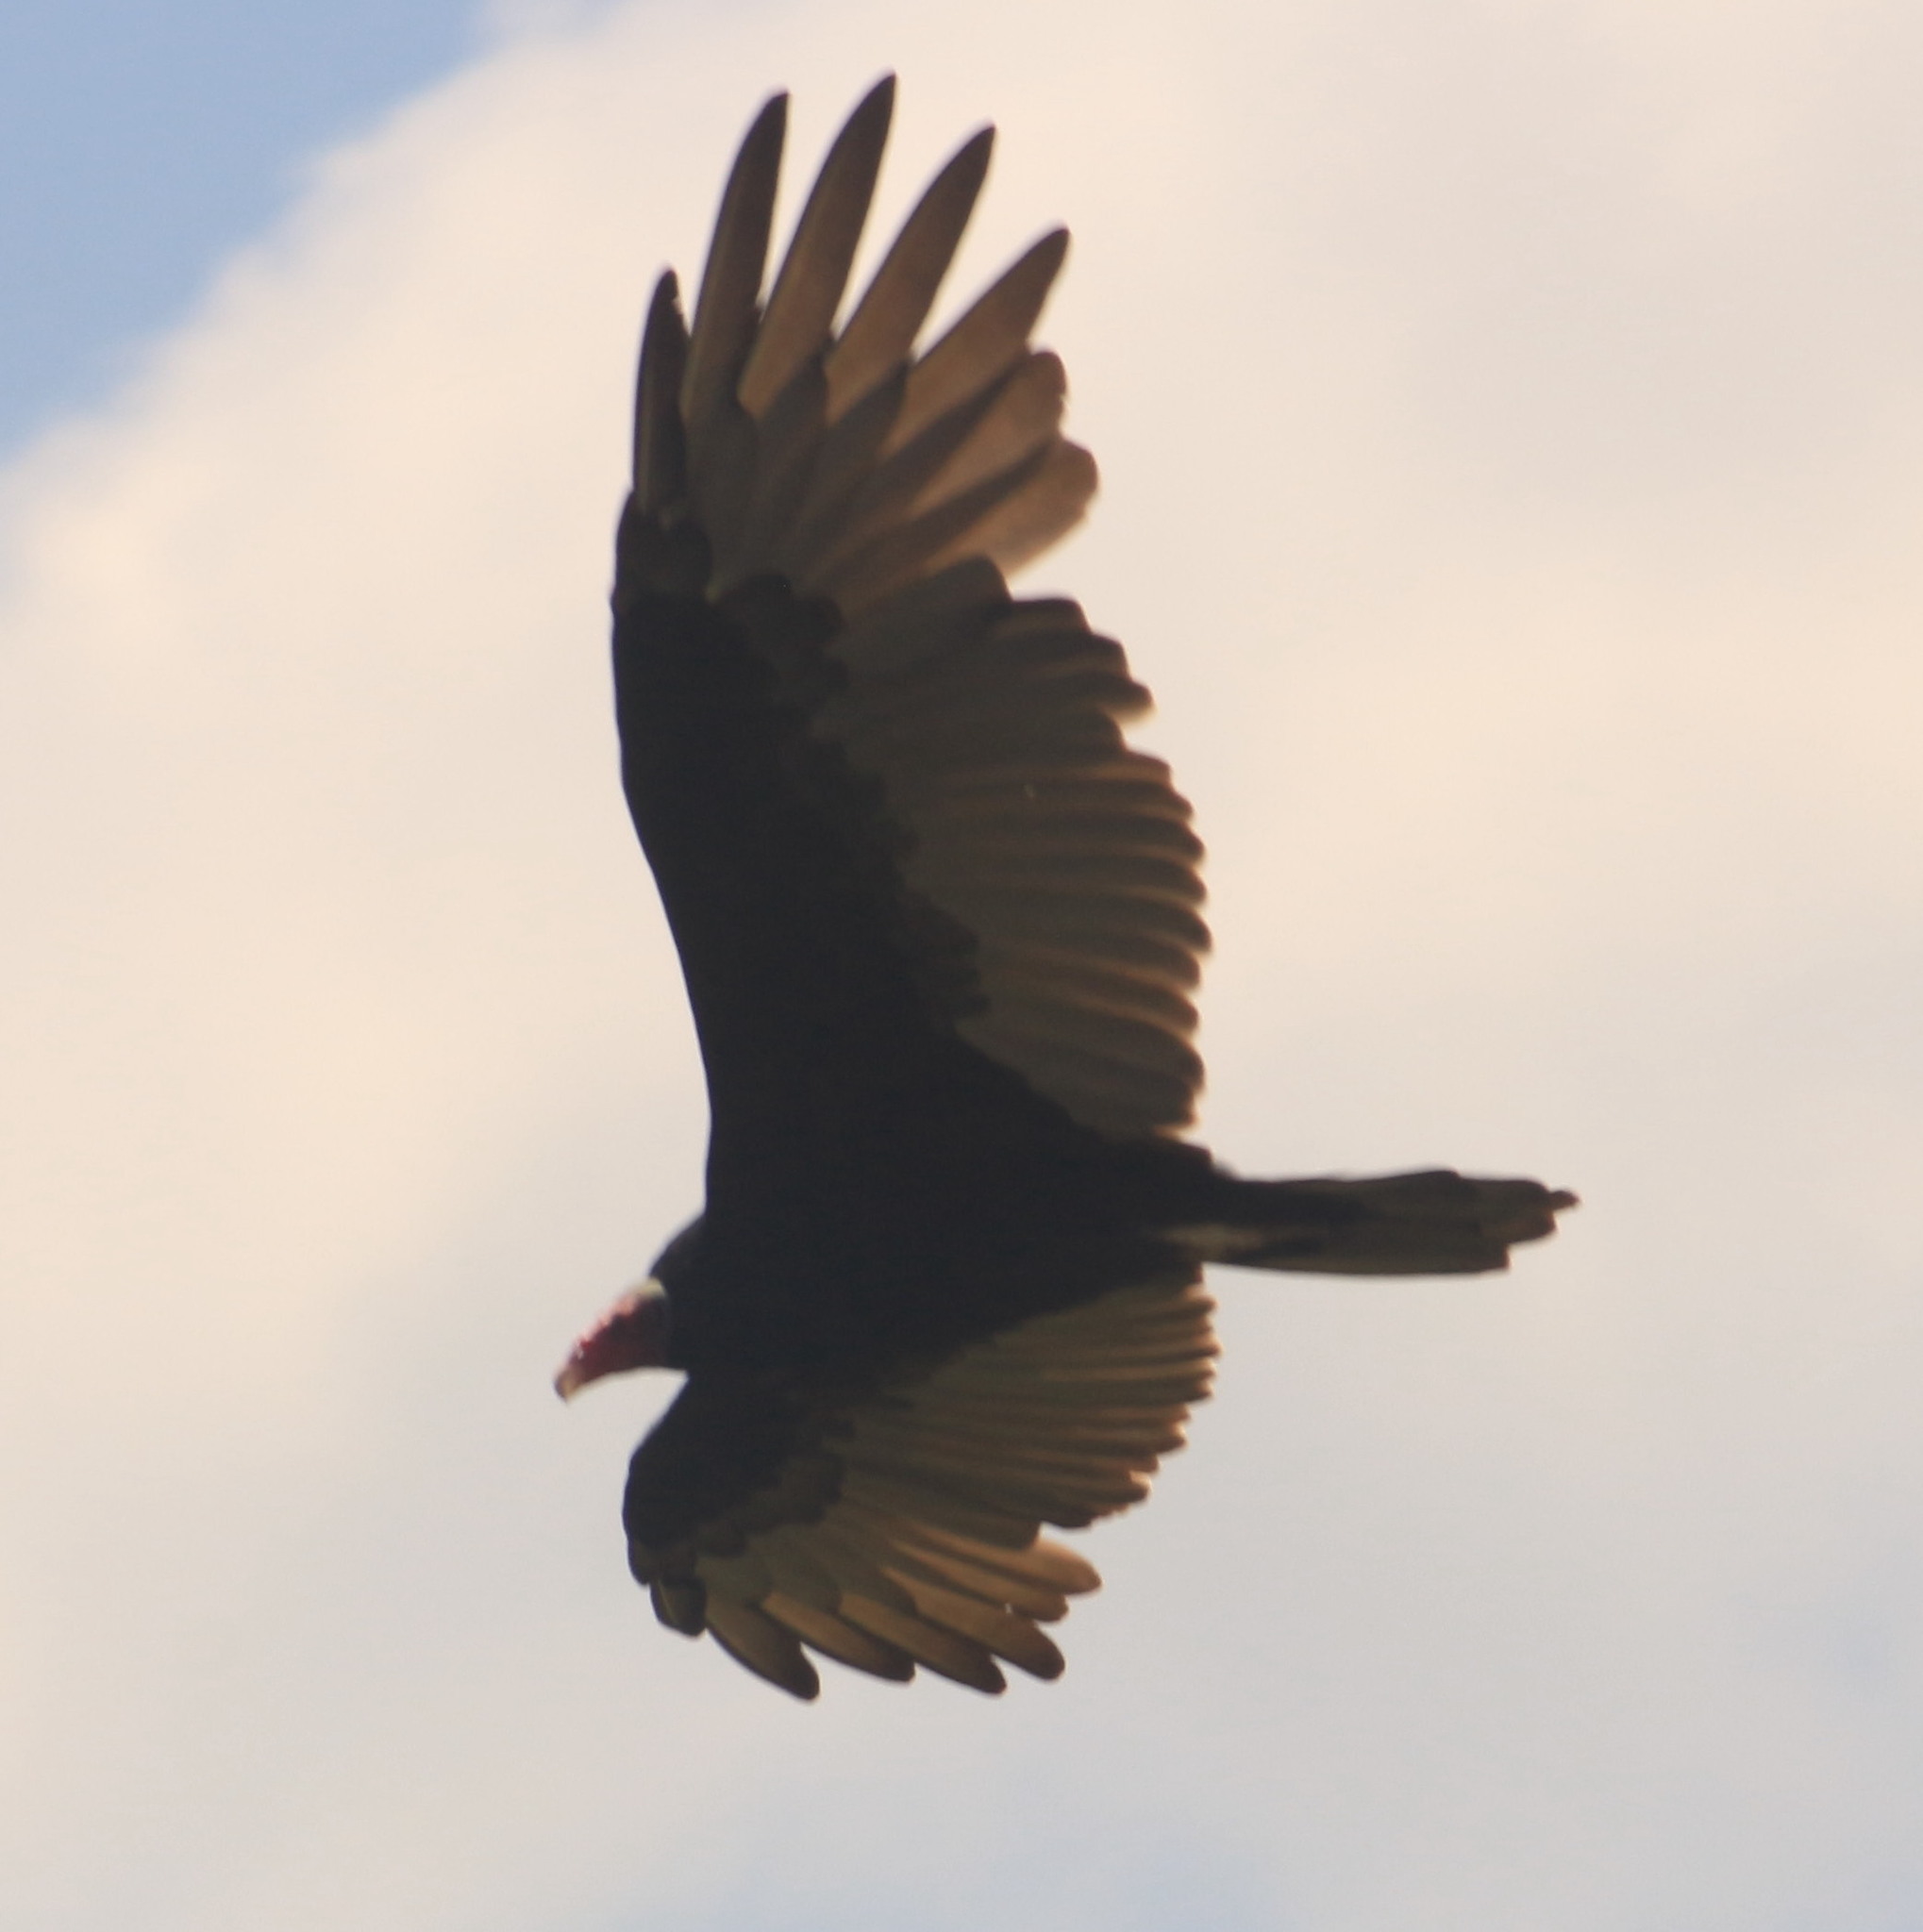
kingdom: Animalia
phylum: Chordata
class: Aves
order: Accipitriformes
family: Cathartidae
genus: Cathartes
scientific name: Cathartes aura
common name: Turkey vulture
